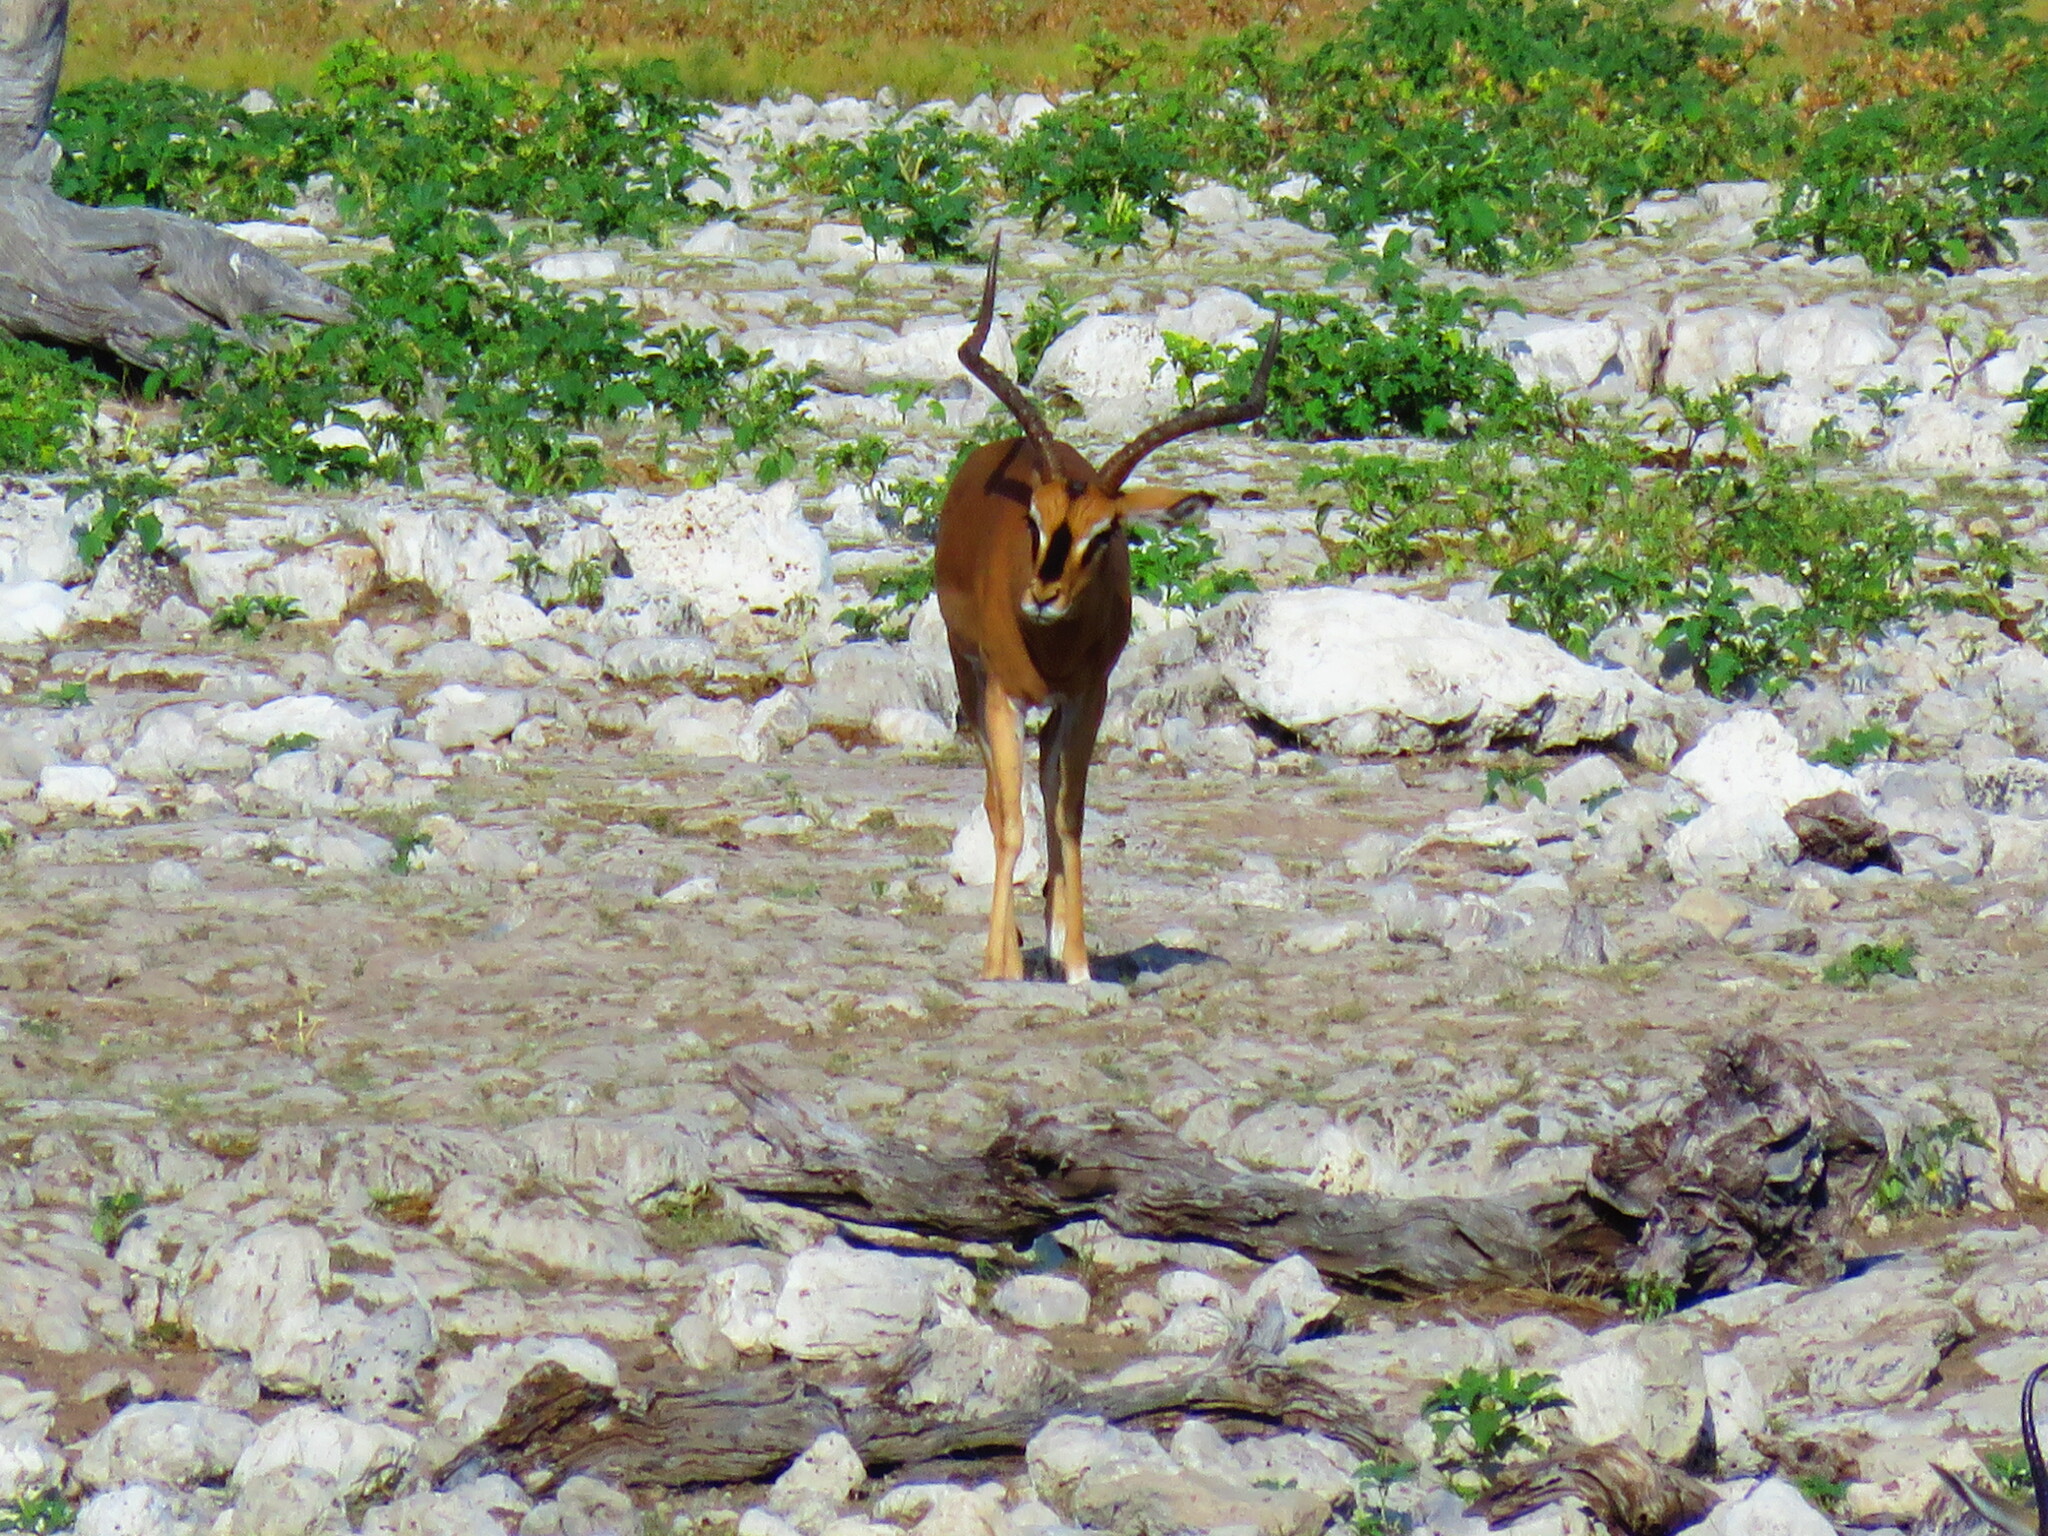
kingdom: Animalia
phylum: Chordata
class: Mammalia
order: Artiodactyla
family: Bovidae
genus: Aepyceros
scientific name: Aepyceros melampus
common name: Impala
